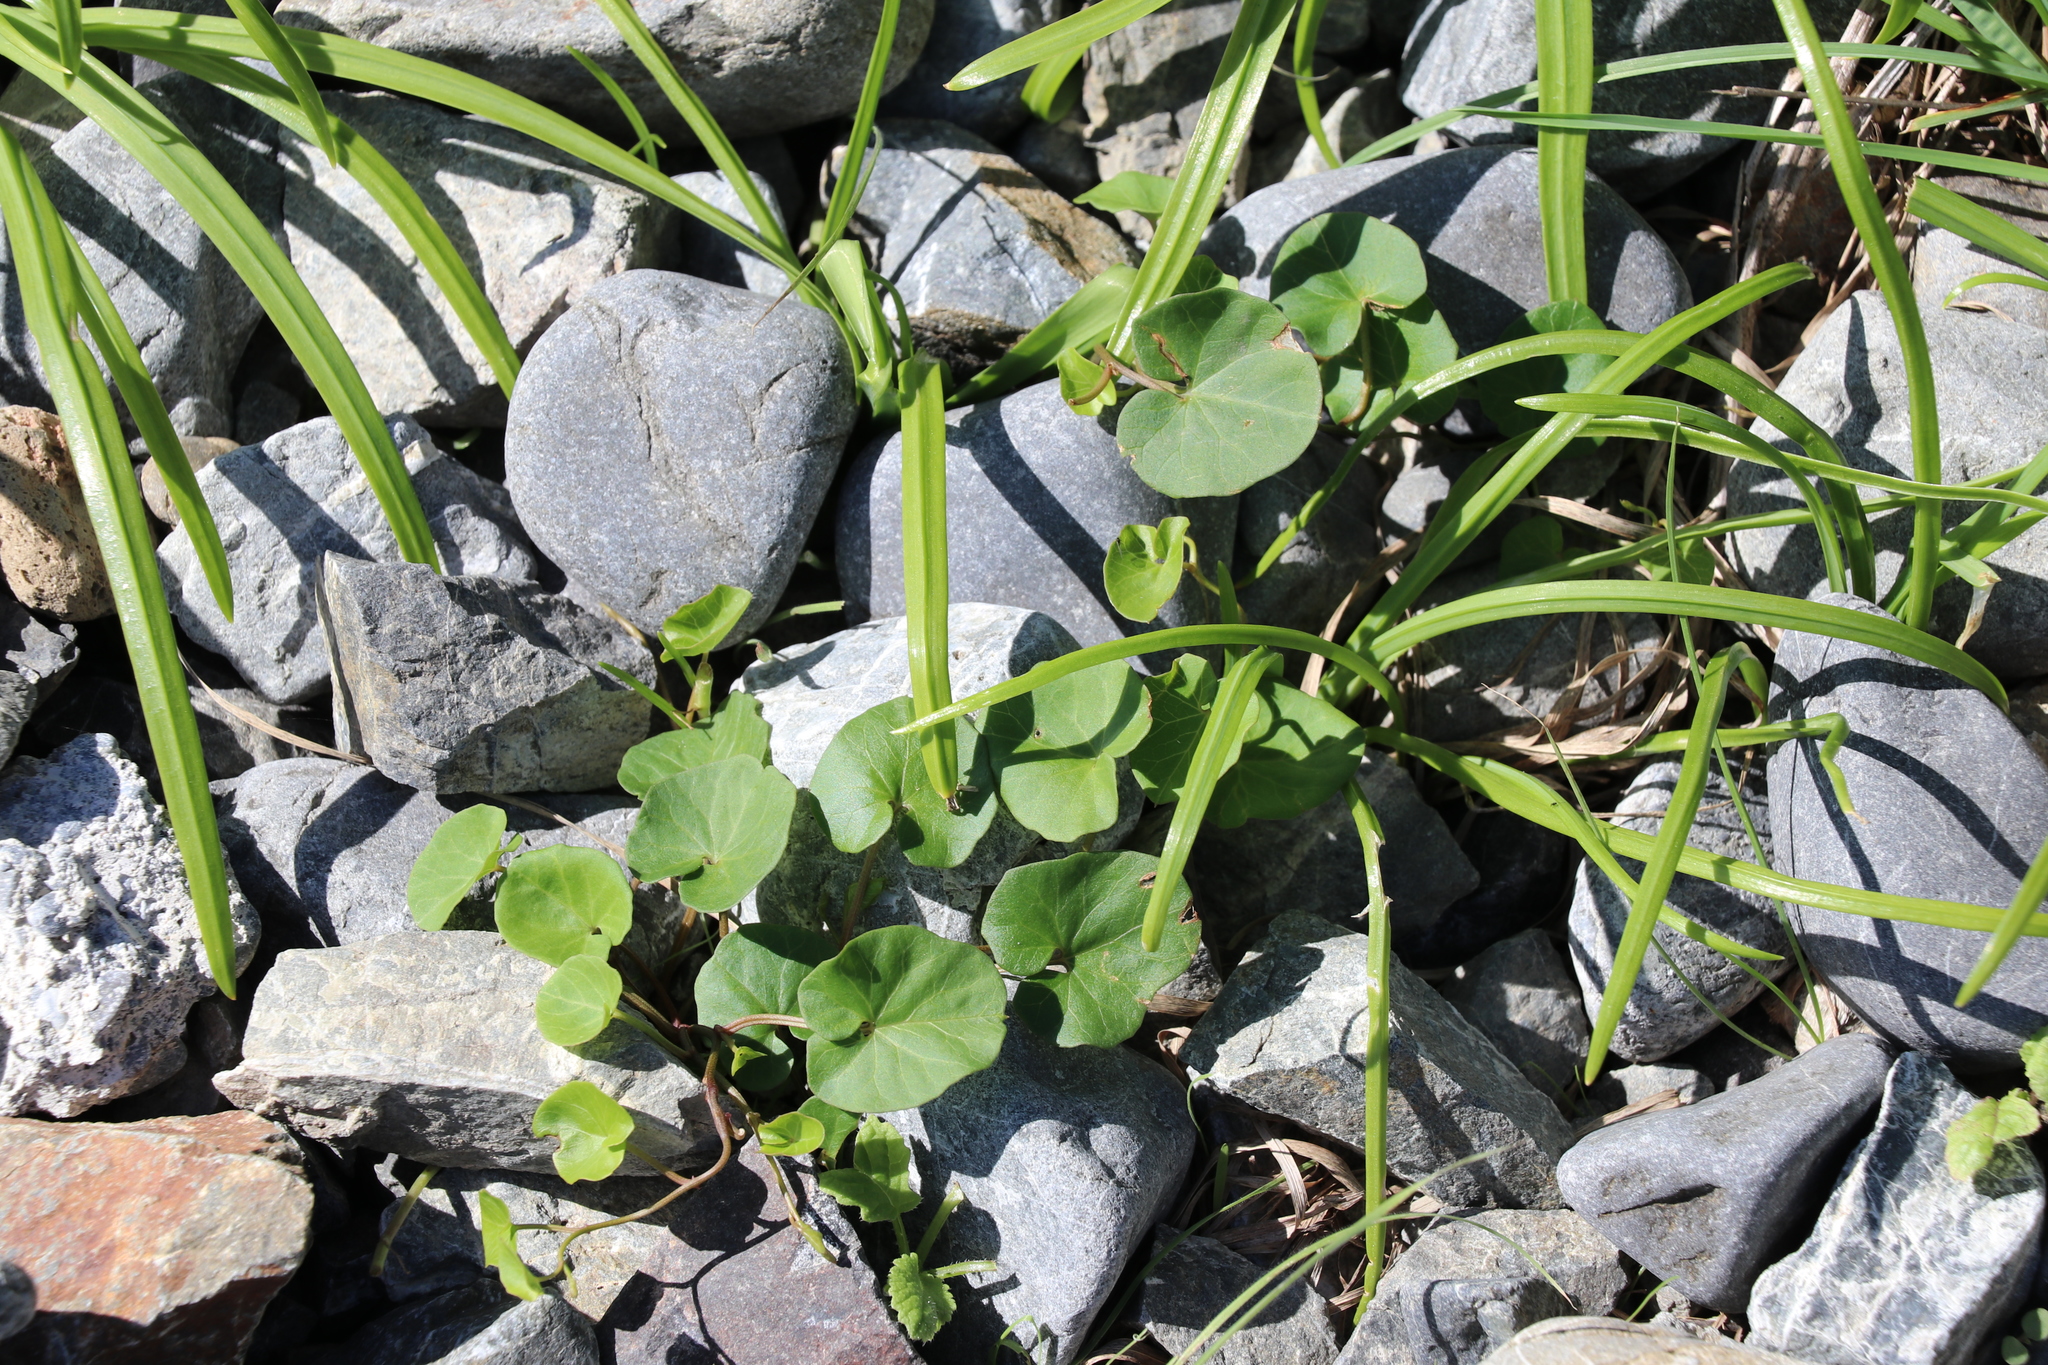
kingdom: Plantae
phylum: Tracheophyta
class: Magnoliopsida
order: Solanales
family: Convolvulaceae
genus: Calystegia
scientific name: Calystegia soldanella
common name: Sea bindweed
